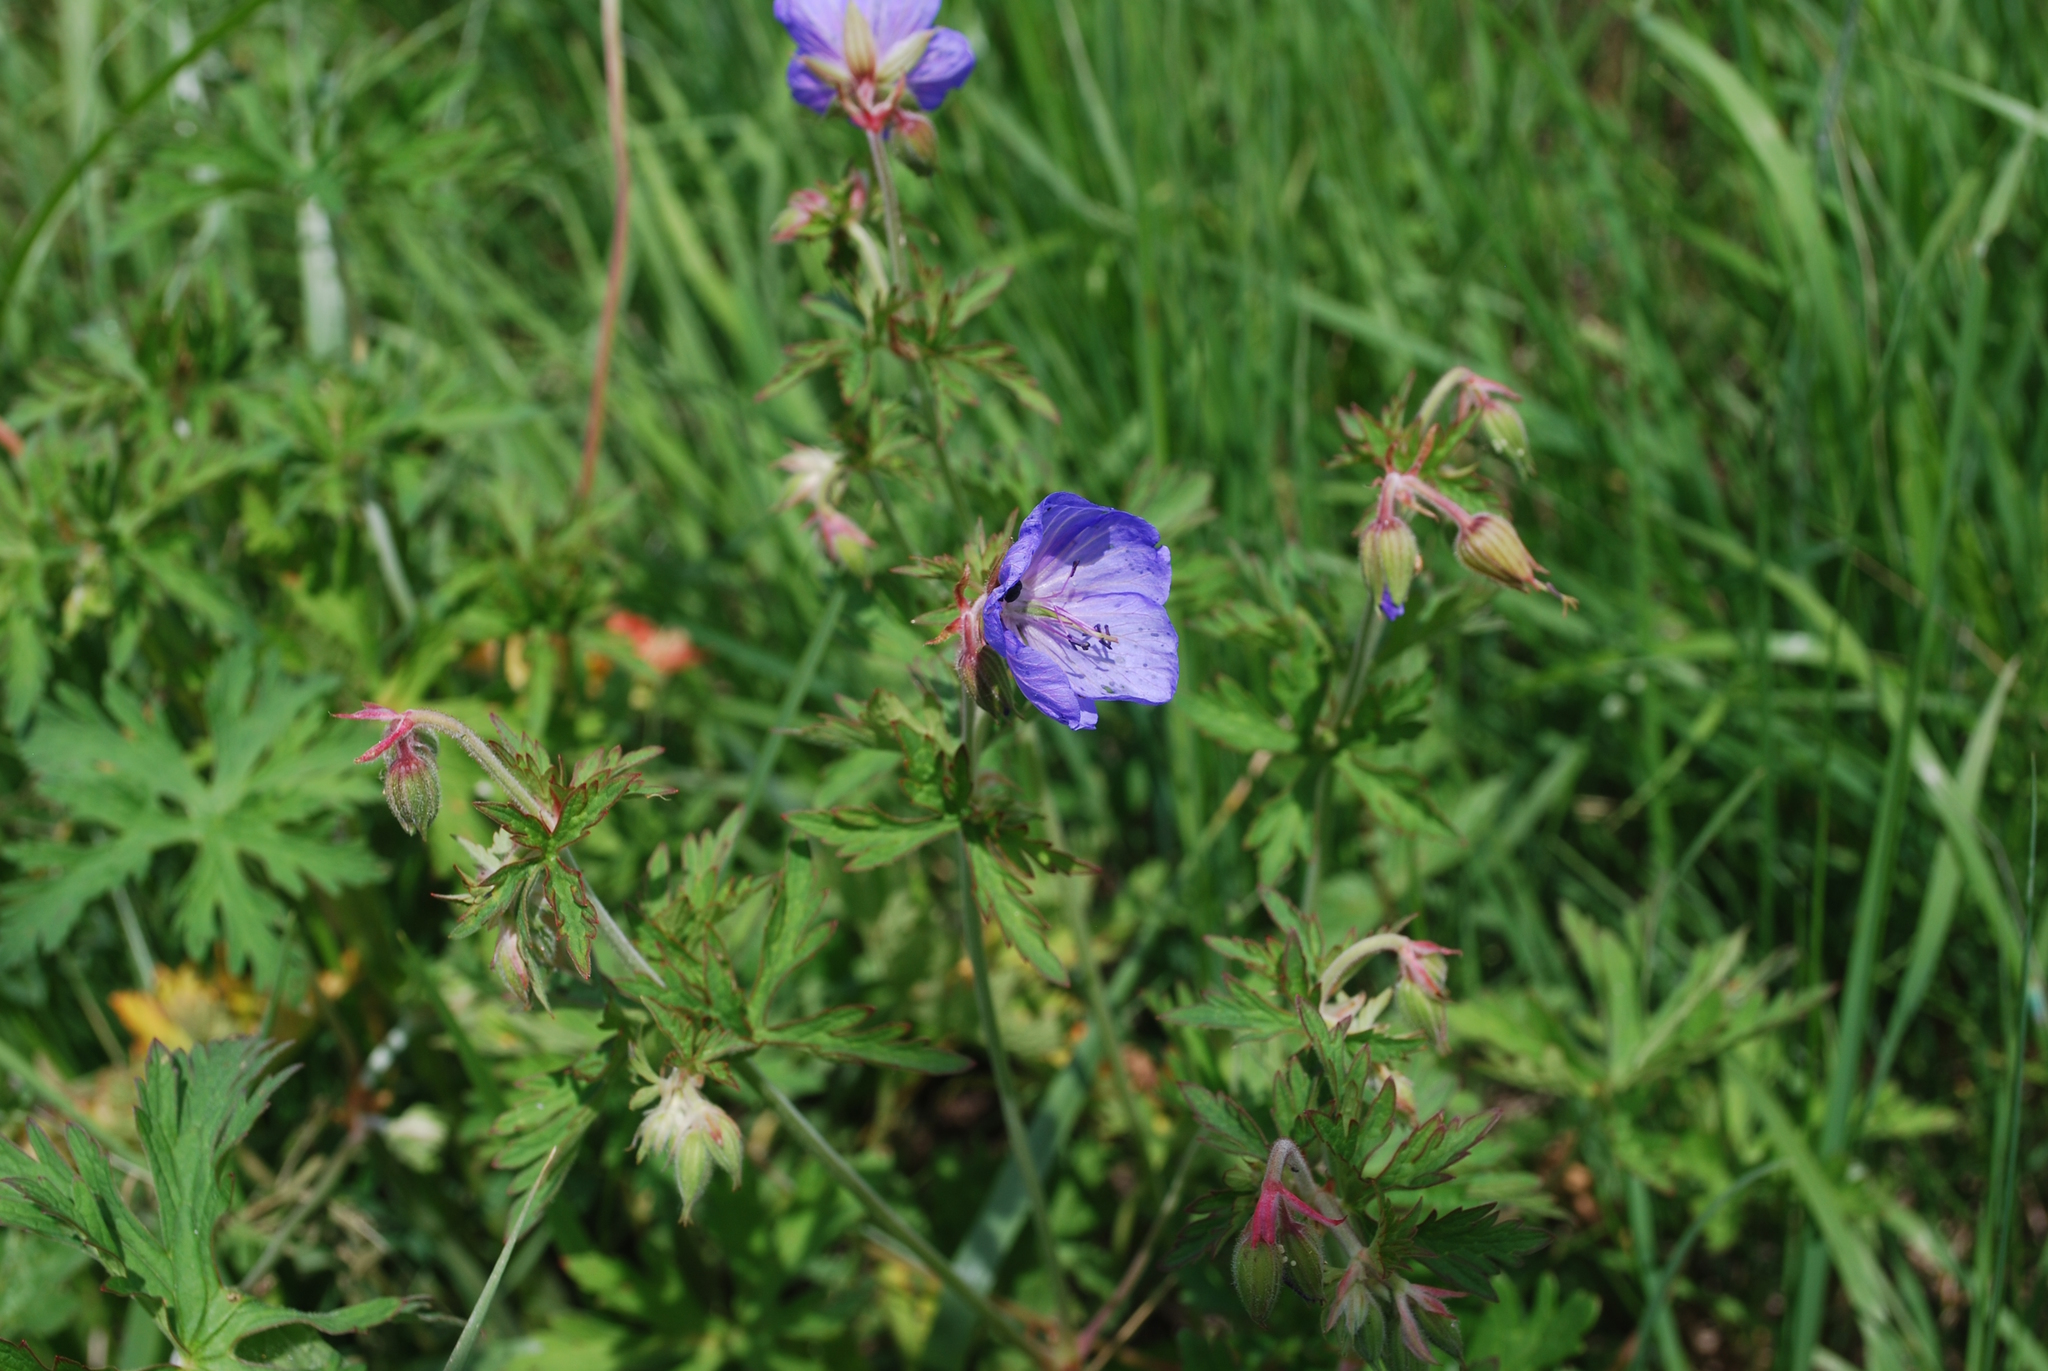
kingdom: Plantae
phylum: Tracheophyta
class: Magnoliopsida
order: Geraniales
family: Geraniaceae
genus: Geranium
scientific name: Geranium pratense
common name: Meadow crane's-bill
